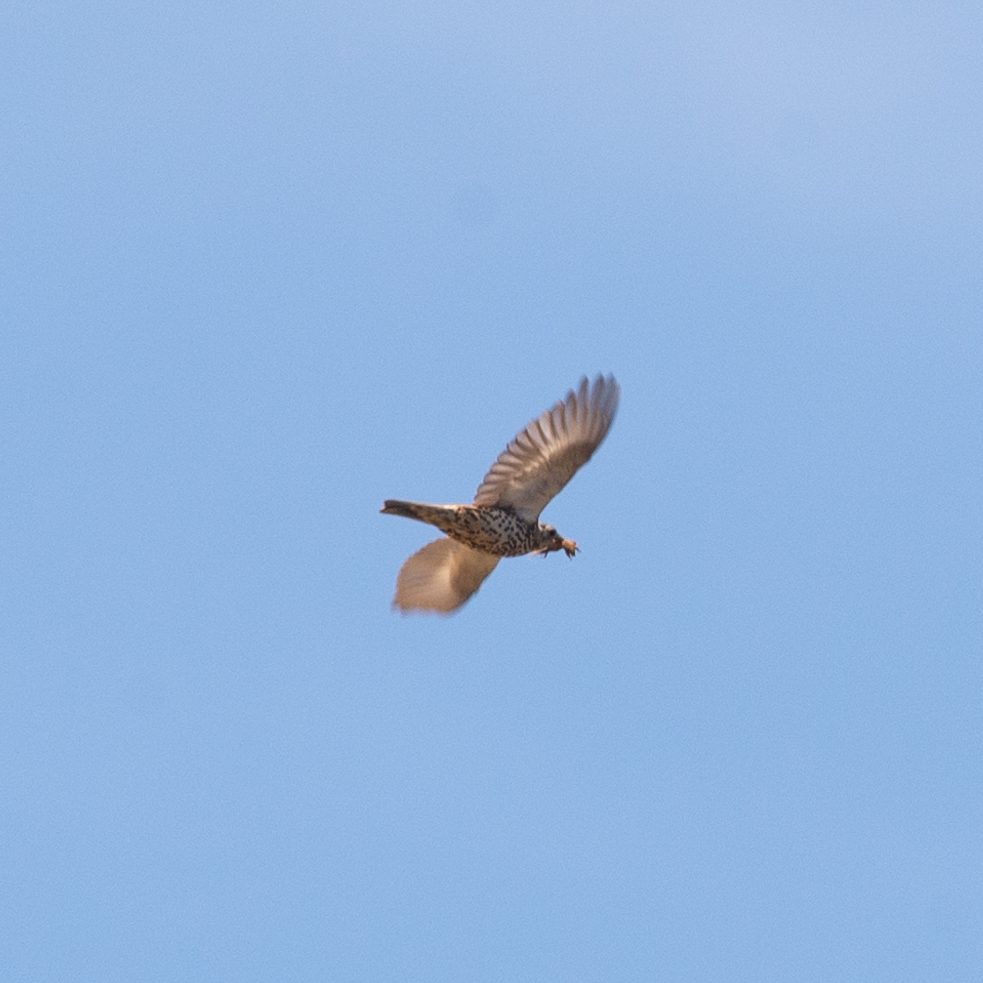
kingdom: Animalia
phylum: Chordata
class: Aves
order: Passeriformes
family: Turdidae
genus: Turdus
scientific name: Turdus viscivorus
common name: Mistle thrush
